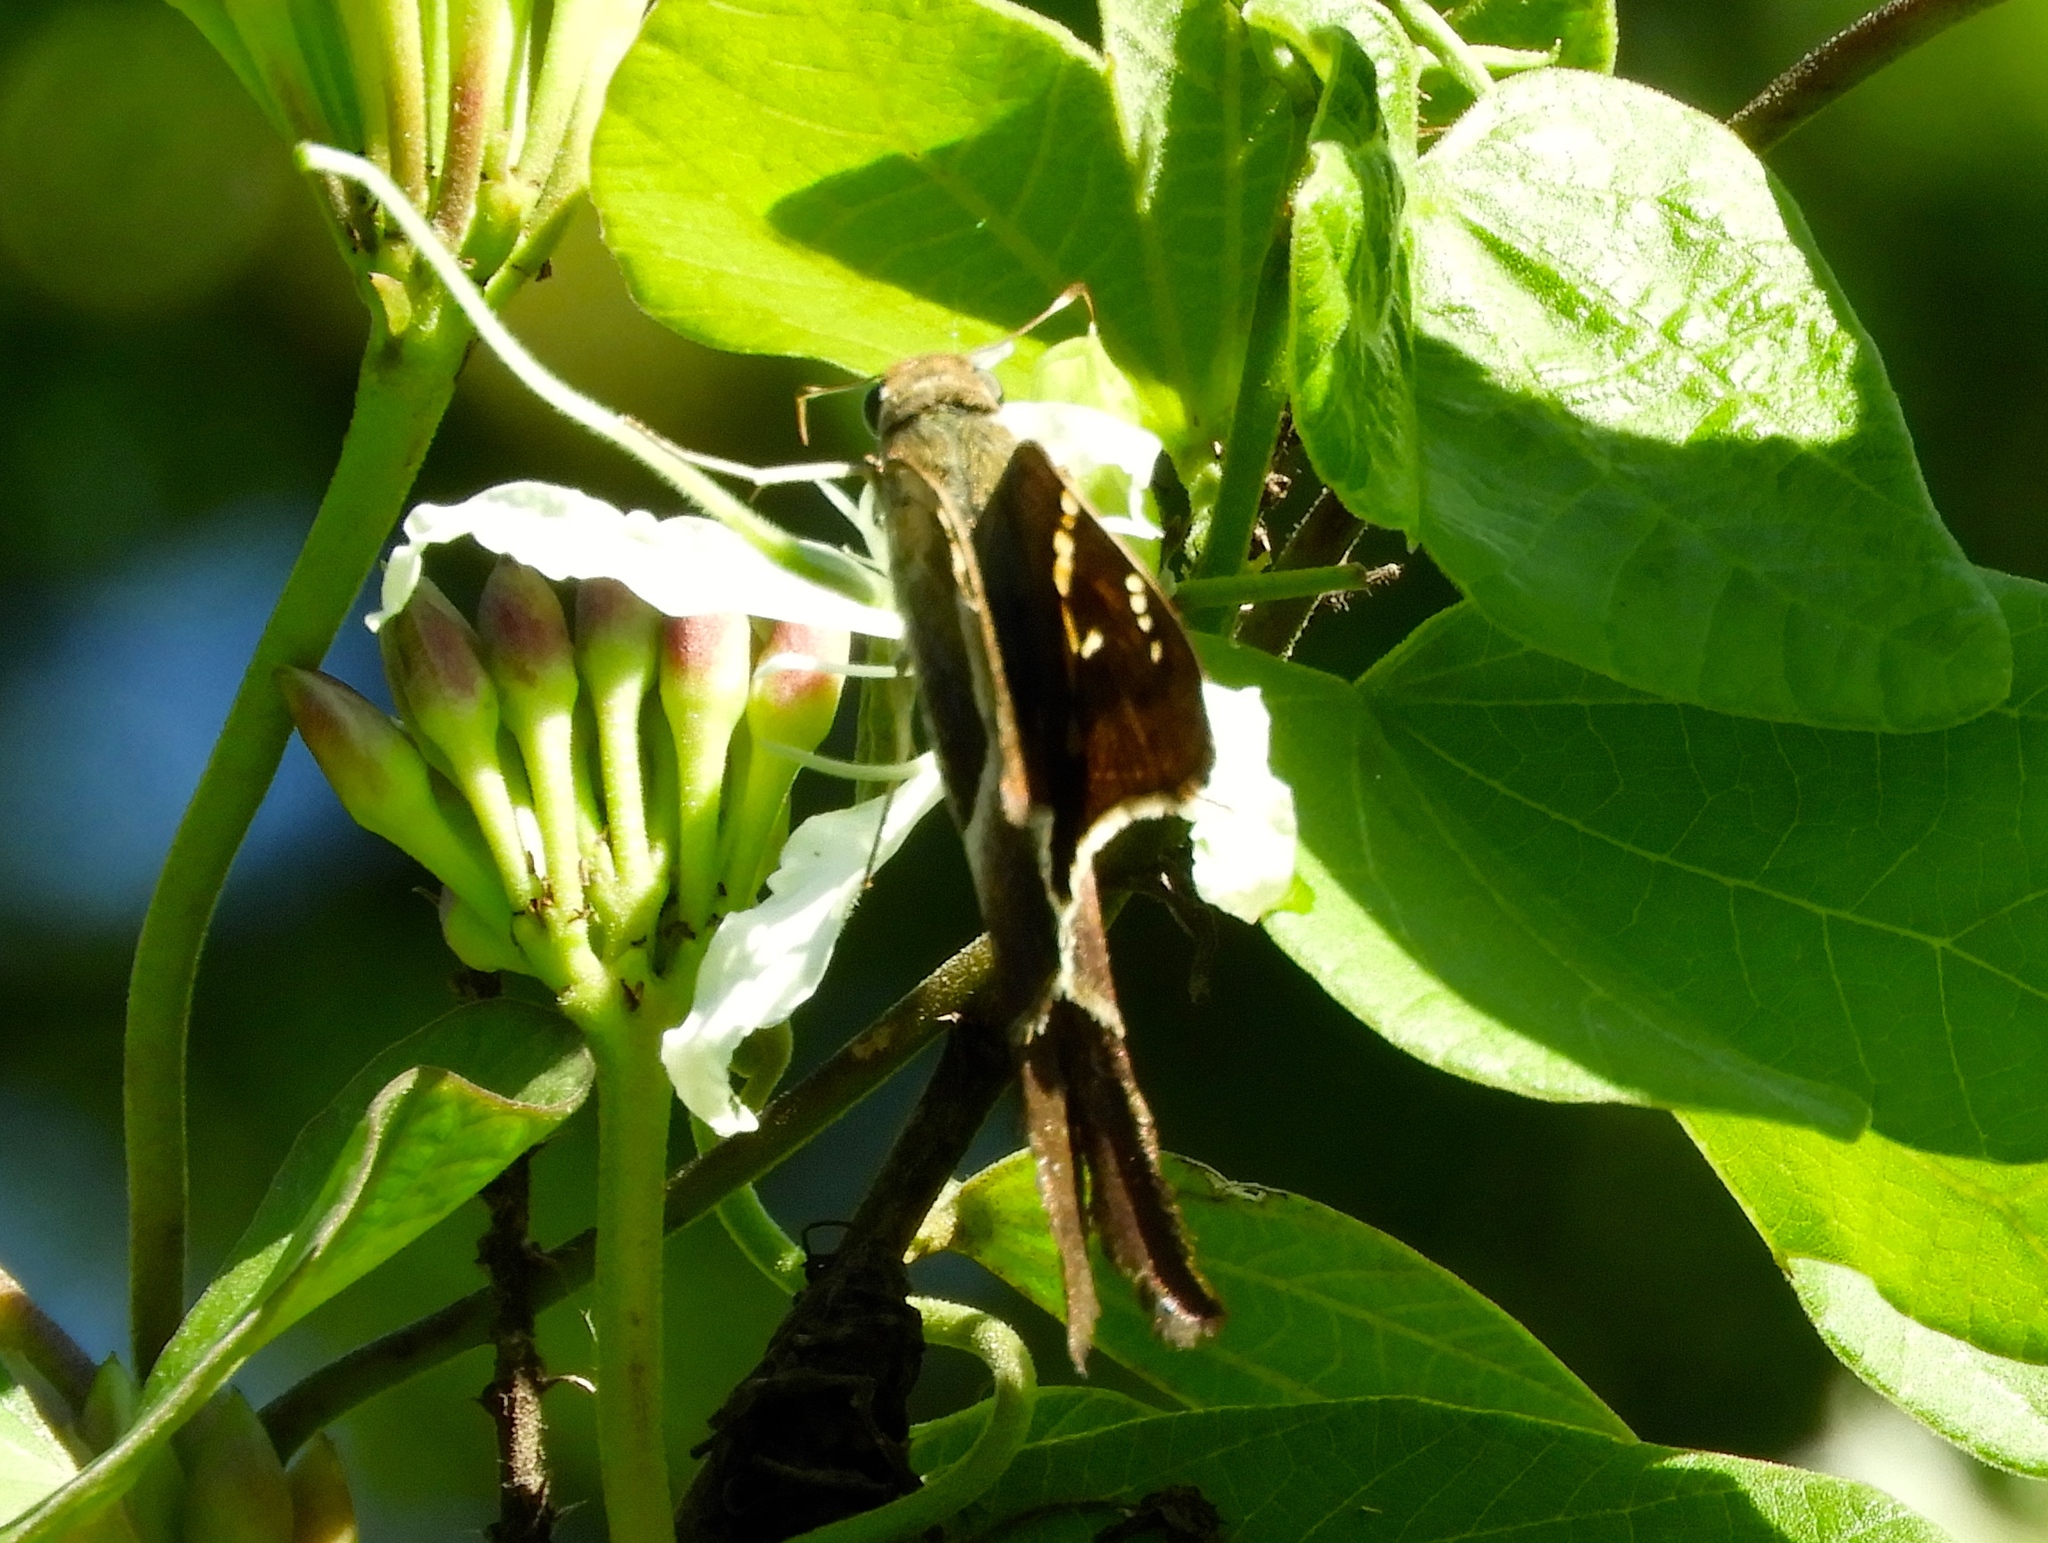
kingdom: Animalia
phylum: Arthropoda
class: Insecta
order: Lepidoptera
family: Hesperiidae
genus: Chioides
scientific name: Chioides catillus
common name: Silverbanded skipper
